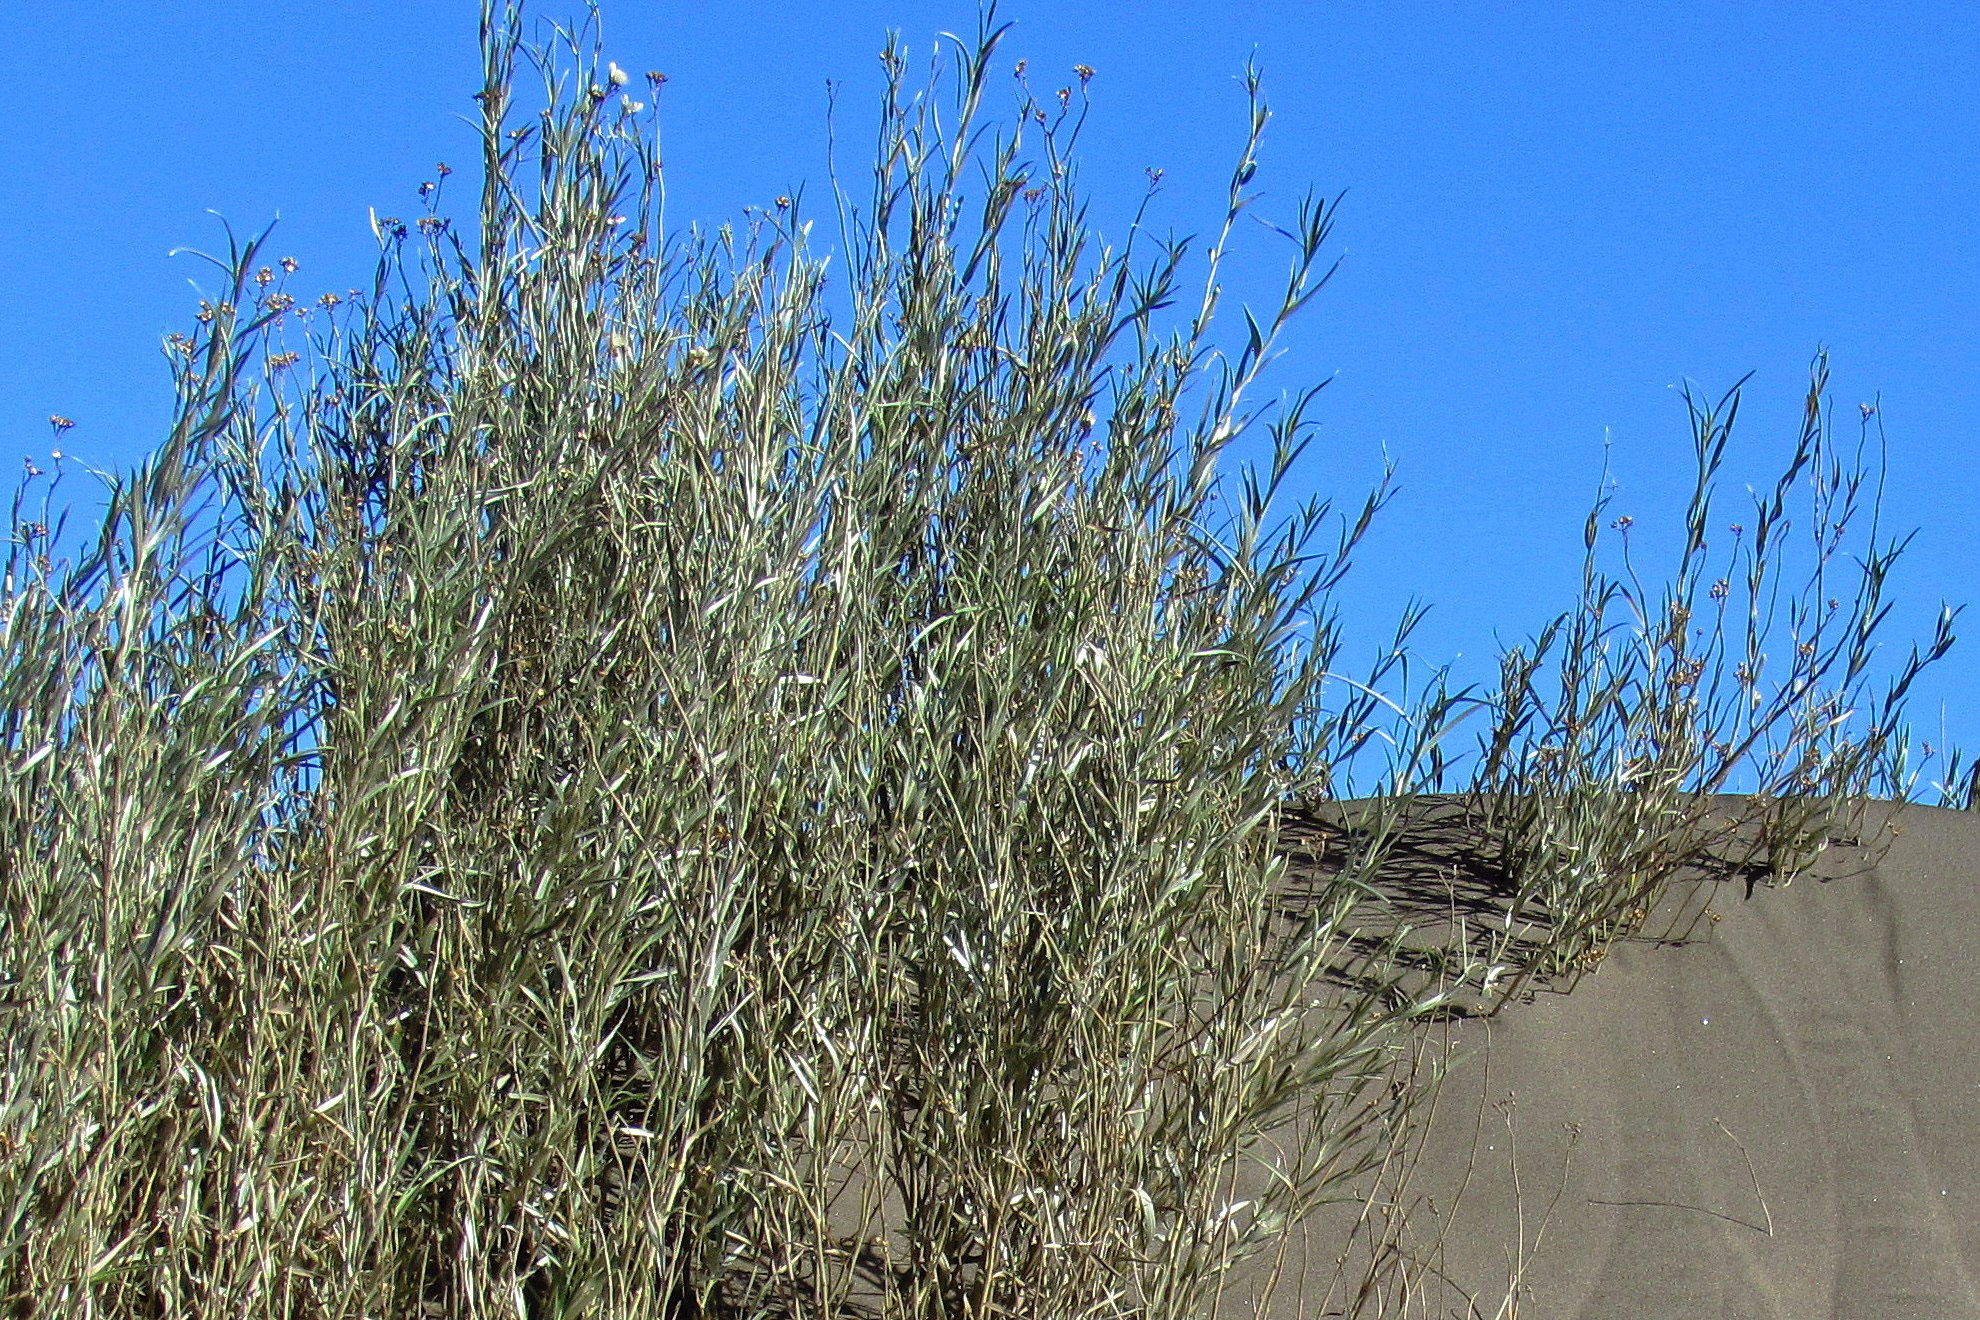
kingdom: Plantae
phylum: Tracheophyta
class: Magnoliopsida
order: Asterales
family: Asteraceae
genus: Hyalis
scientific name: Hyalis argentea
